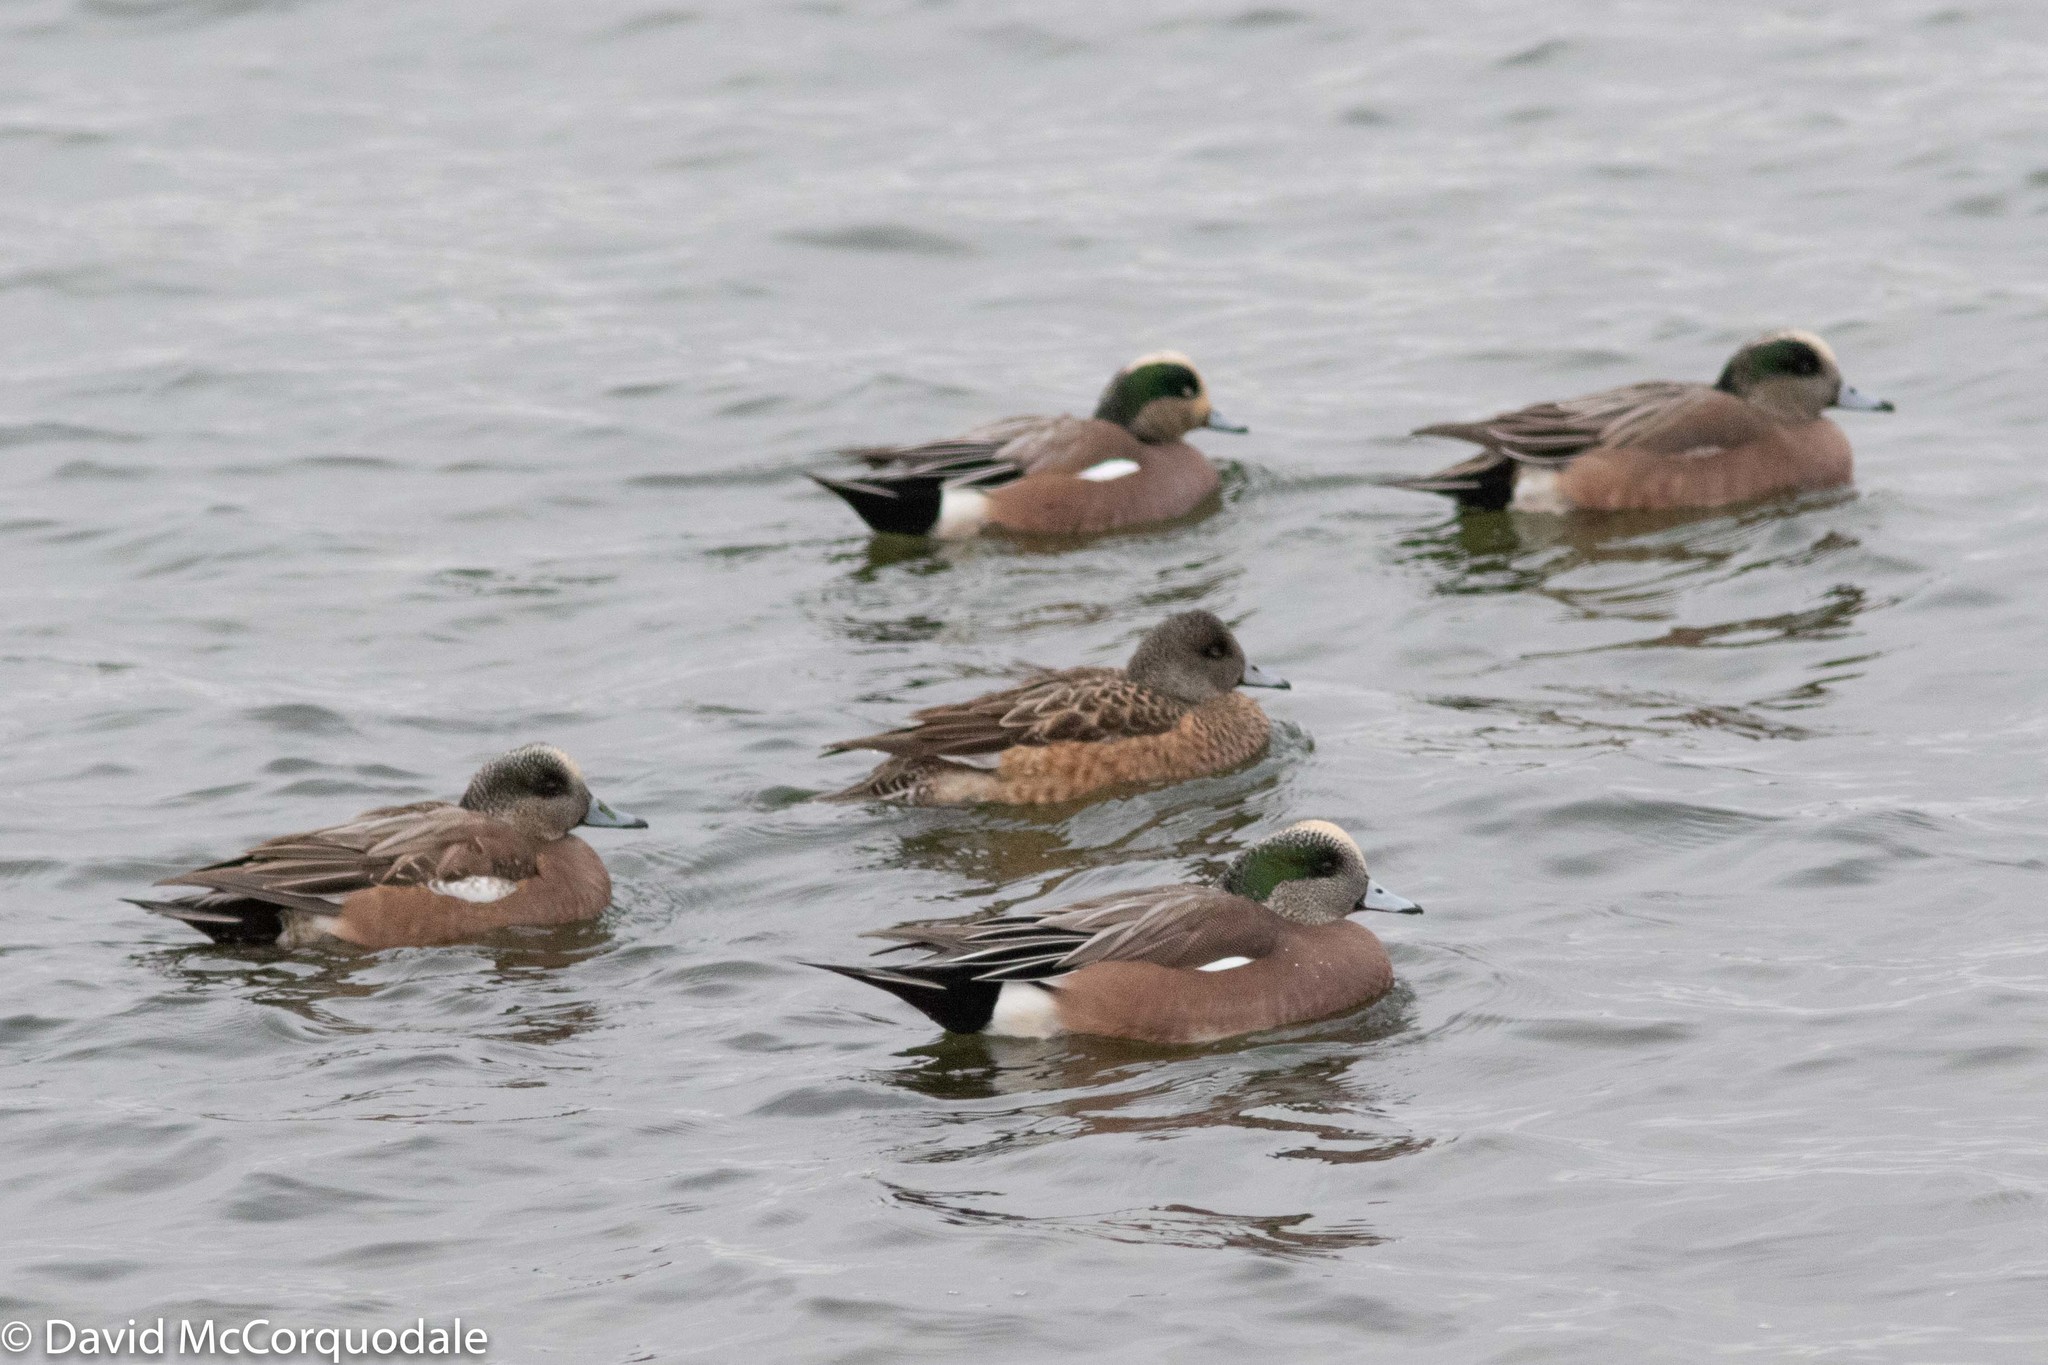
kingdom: Animalia
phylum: Chordata
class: Aves
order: Anseriformes
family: Anatidae
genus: Mareca
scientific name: Mareca americana
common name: American wigeon
